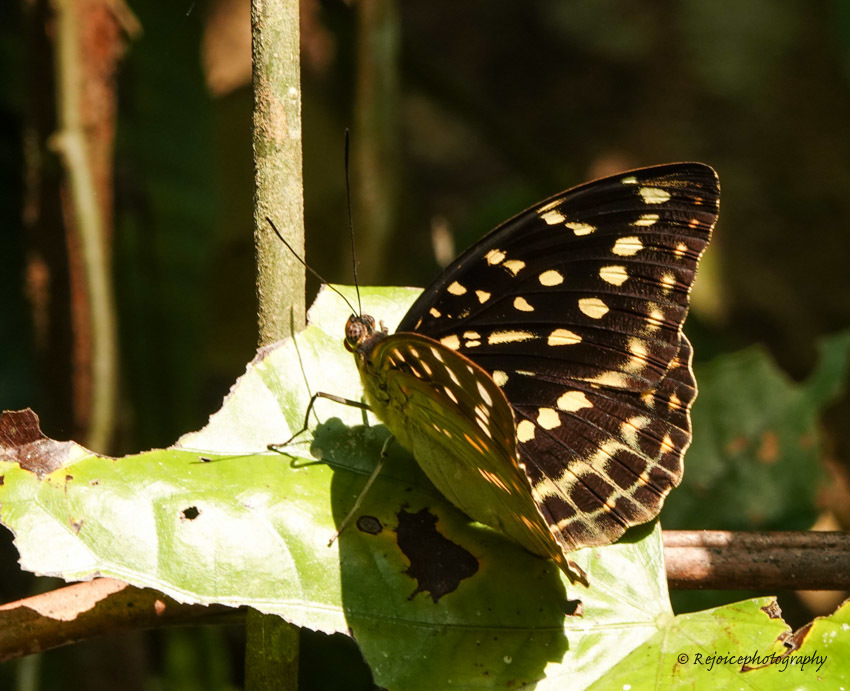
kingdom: Animalia
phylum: Arthropoda
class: Insecta
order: Lepidoptera
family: Nymphalidae
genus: Lexias
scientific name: Lexias dirtea
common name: Black-tipped archduke
